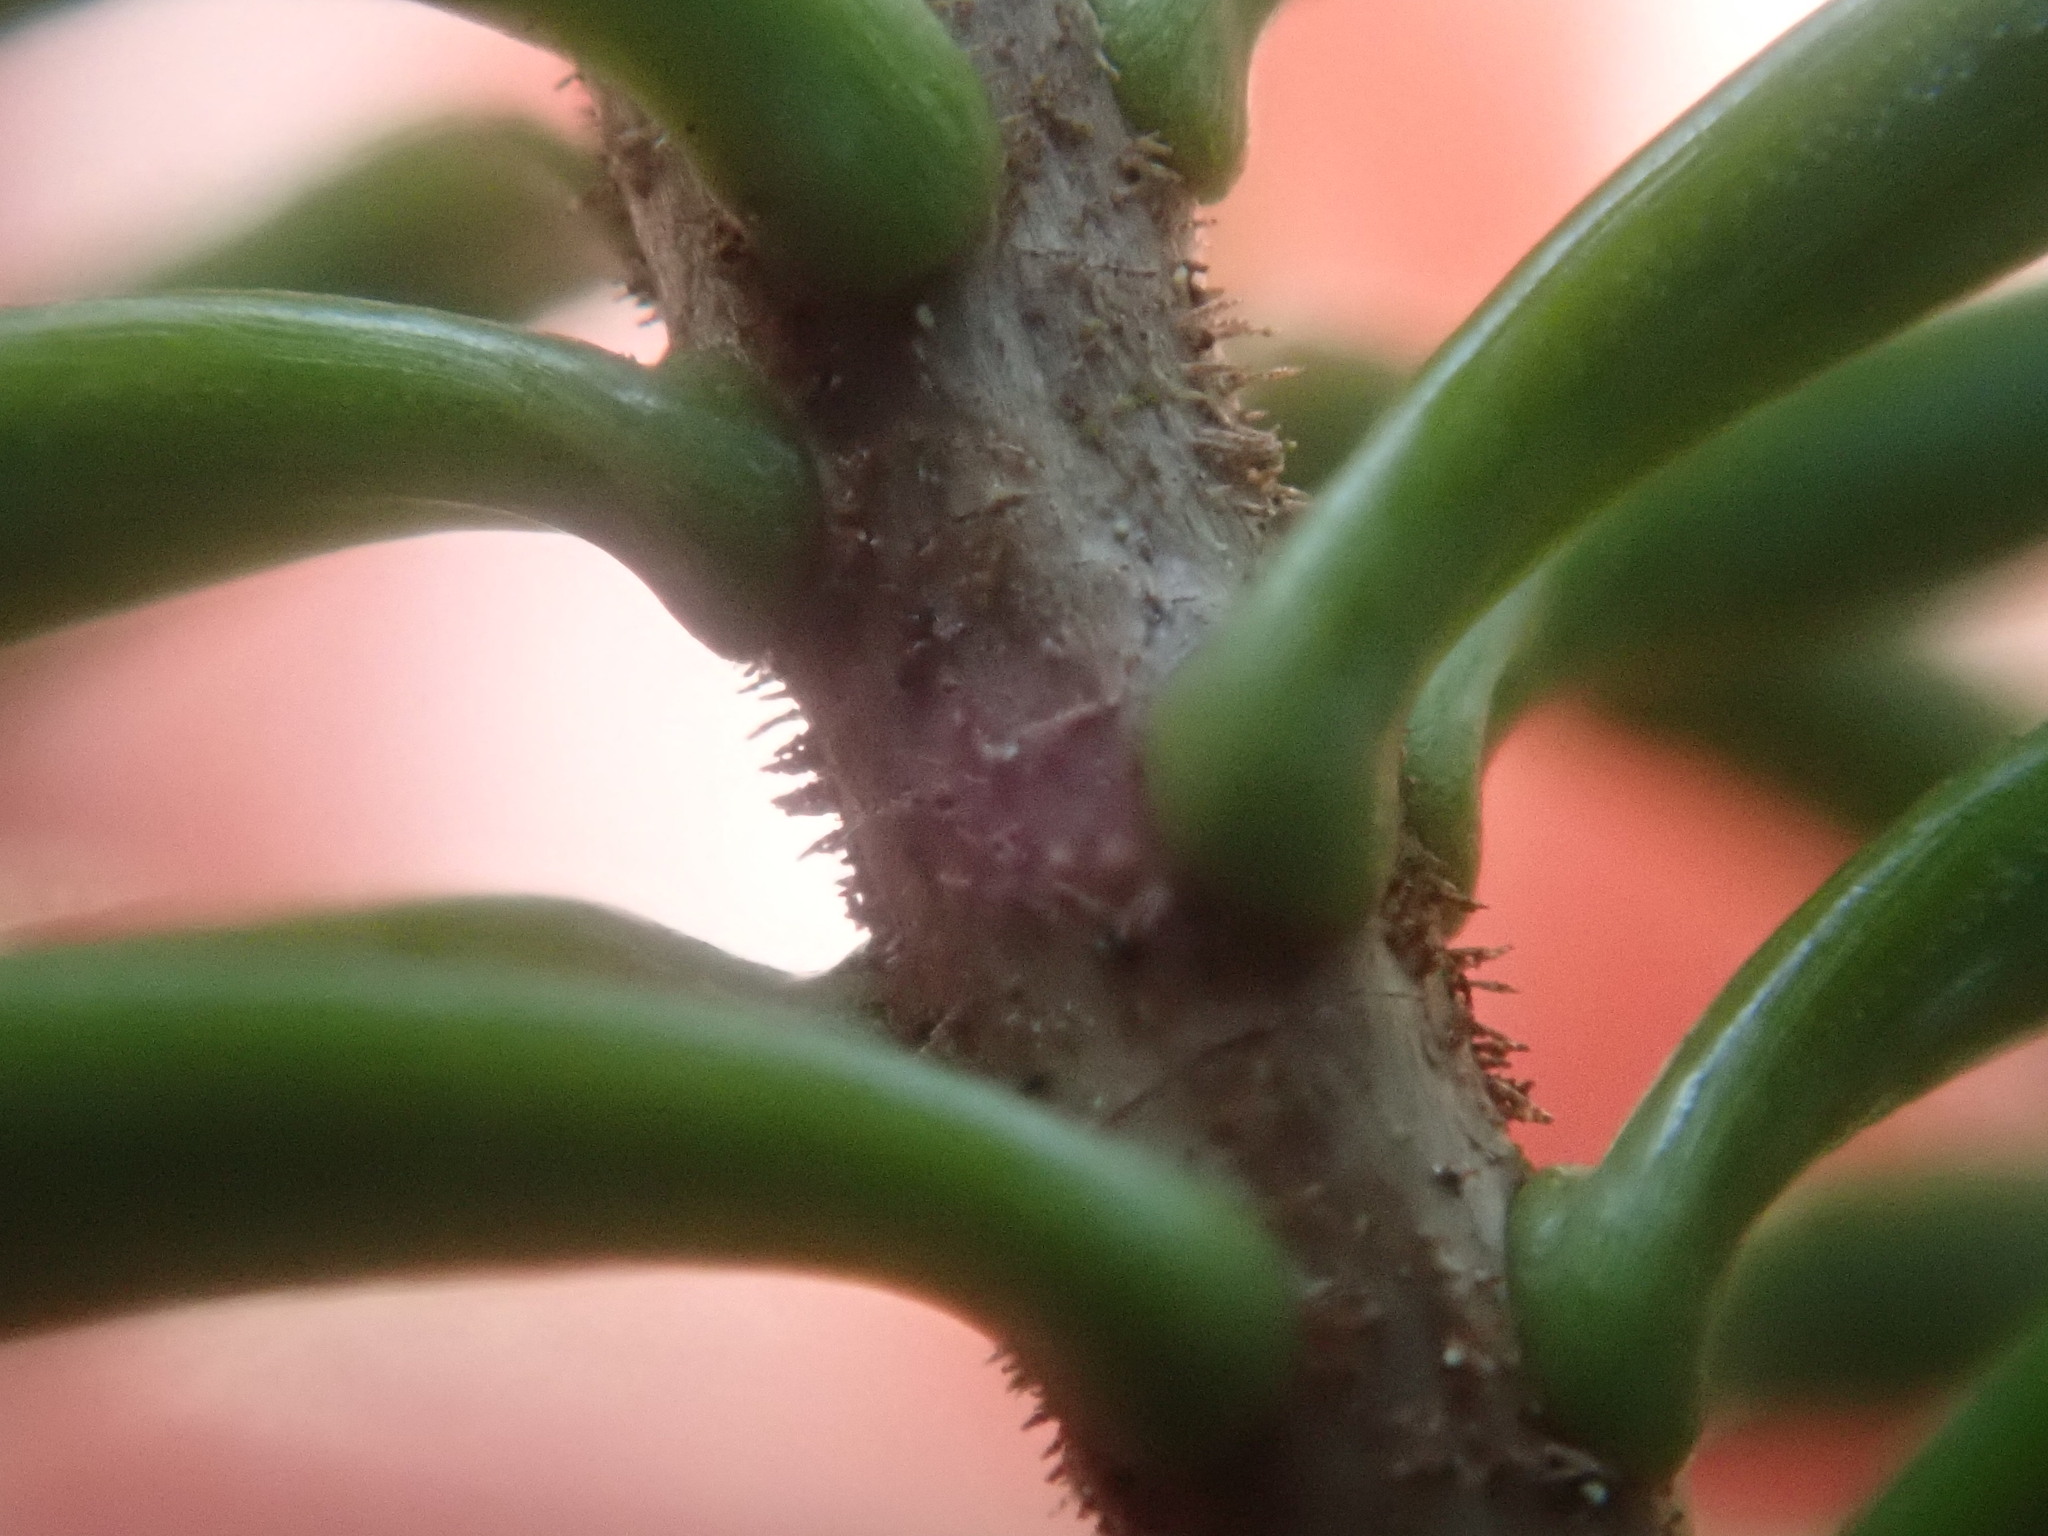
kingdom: Plantae
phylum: Tracheophyta
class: Pinopsida
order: Pinales
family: Pinaceae
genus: Abies
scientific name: Abies balsamea
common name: Balsam fir
